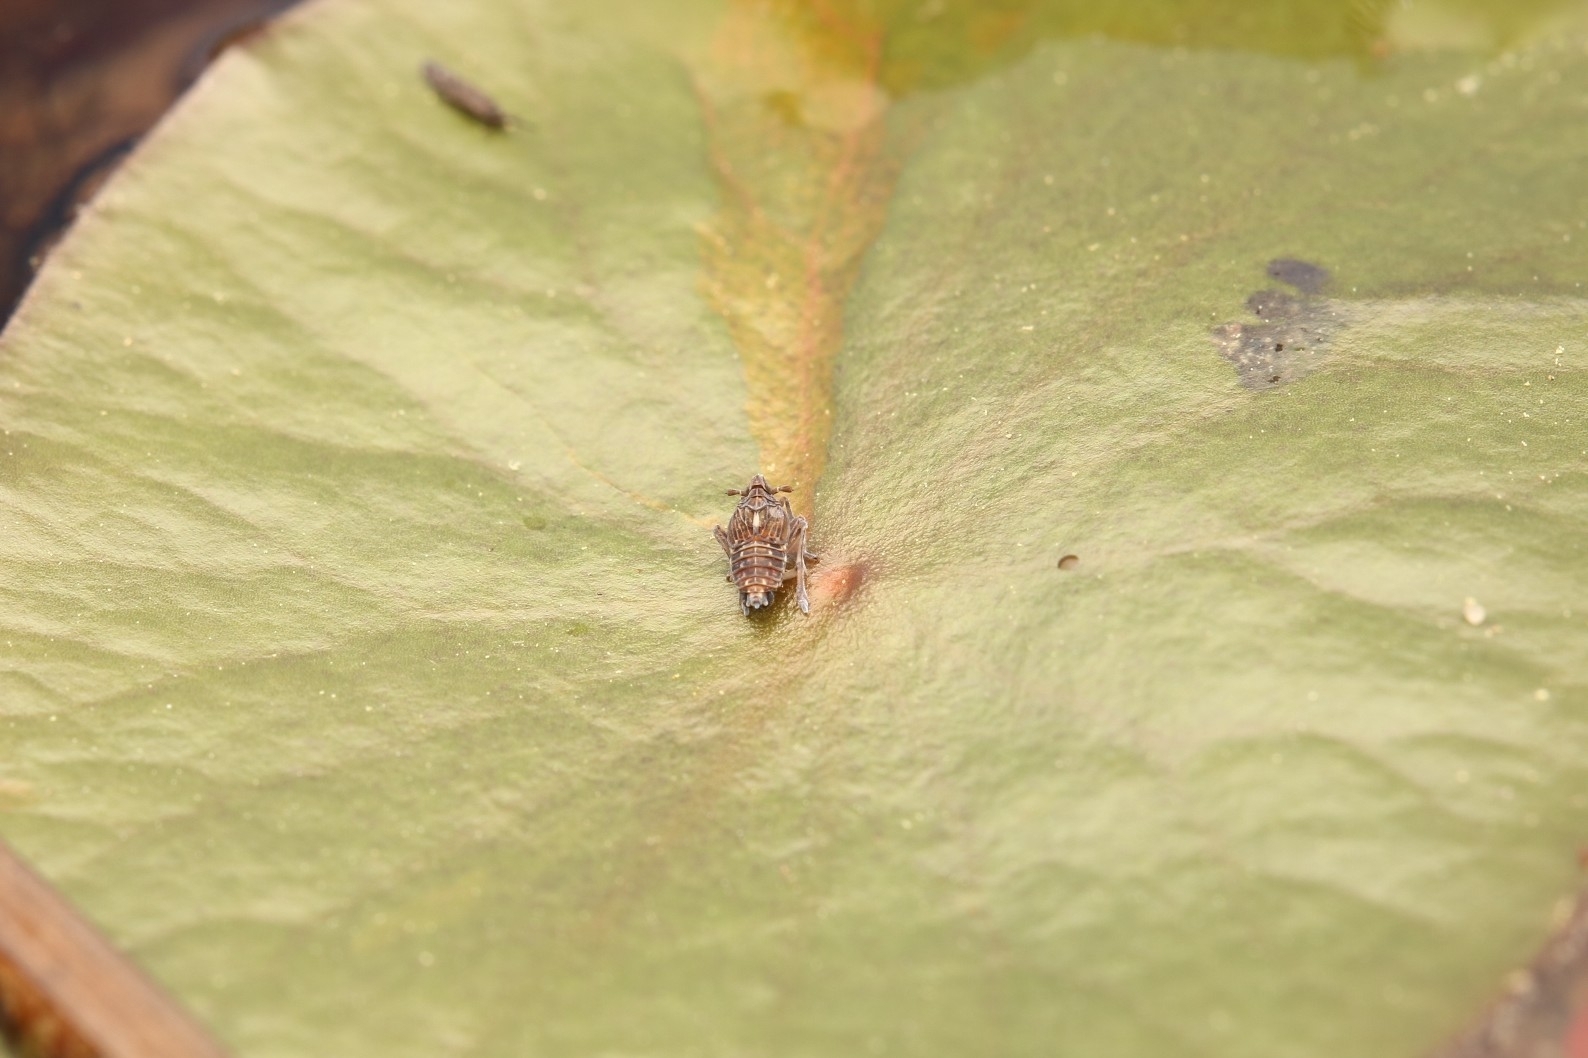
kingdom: Animalia
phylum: Arthropoda
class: Insecta
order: Hemiptera
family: Delphacidae
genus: Megamelus
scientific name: Megamelus davisi
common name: Planthopper
